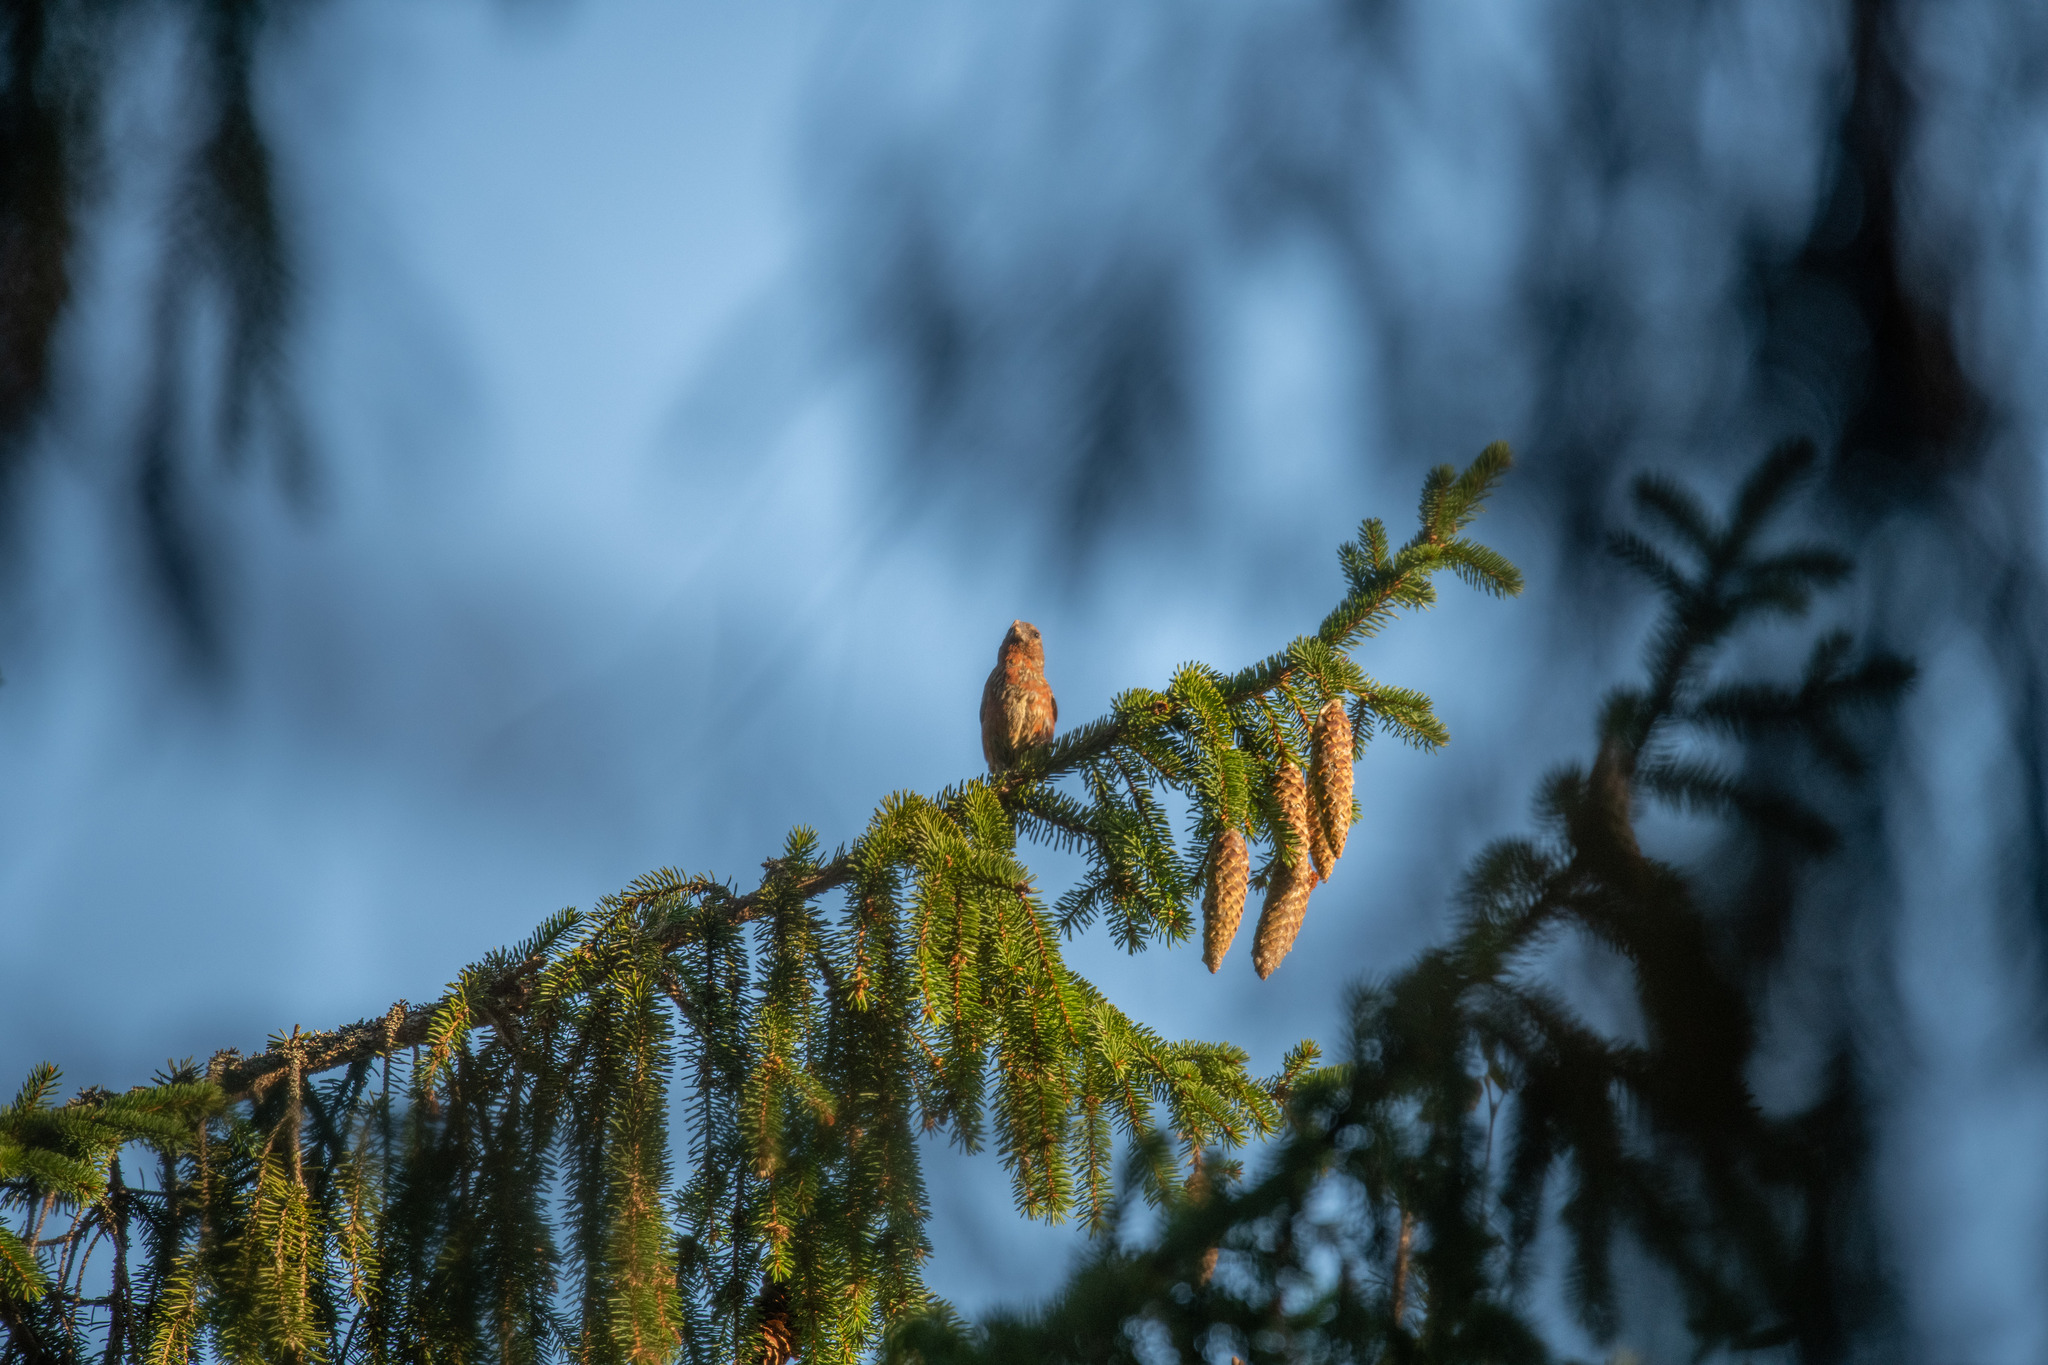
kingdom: Animalia
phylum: Chordata
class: Aves
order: Passeriformes
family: Fringillidae
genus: Loxia
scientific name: Loxia curvirostra
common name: Red crossbill
